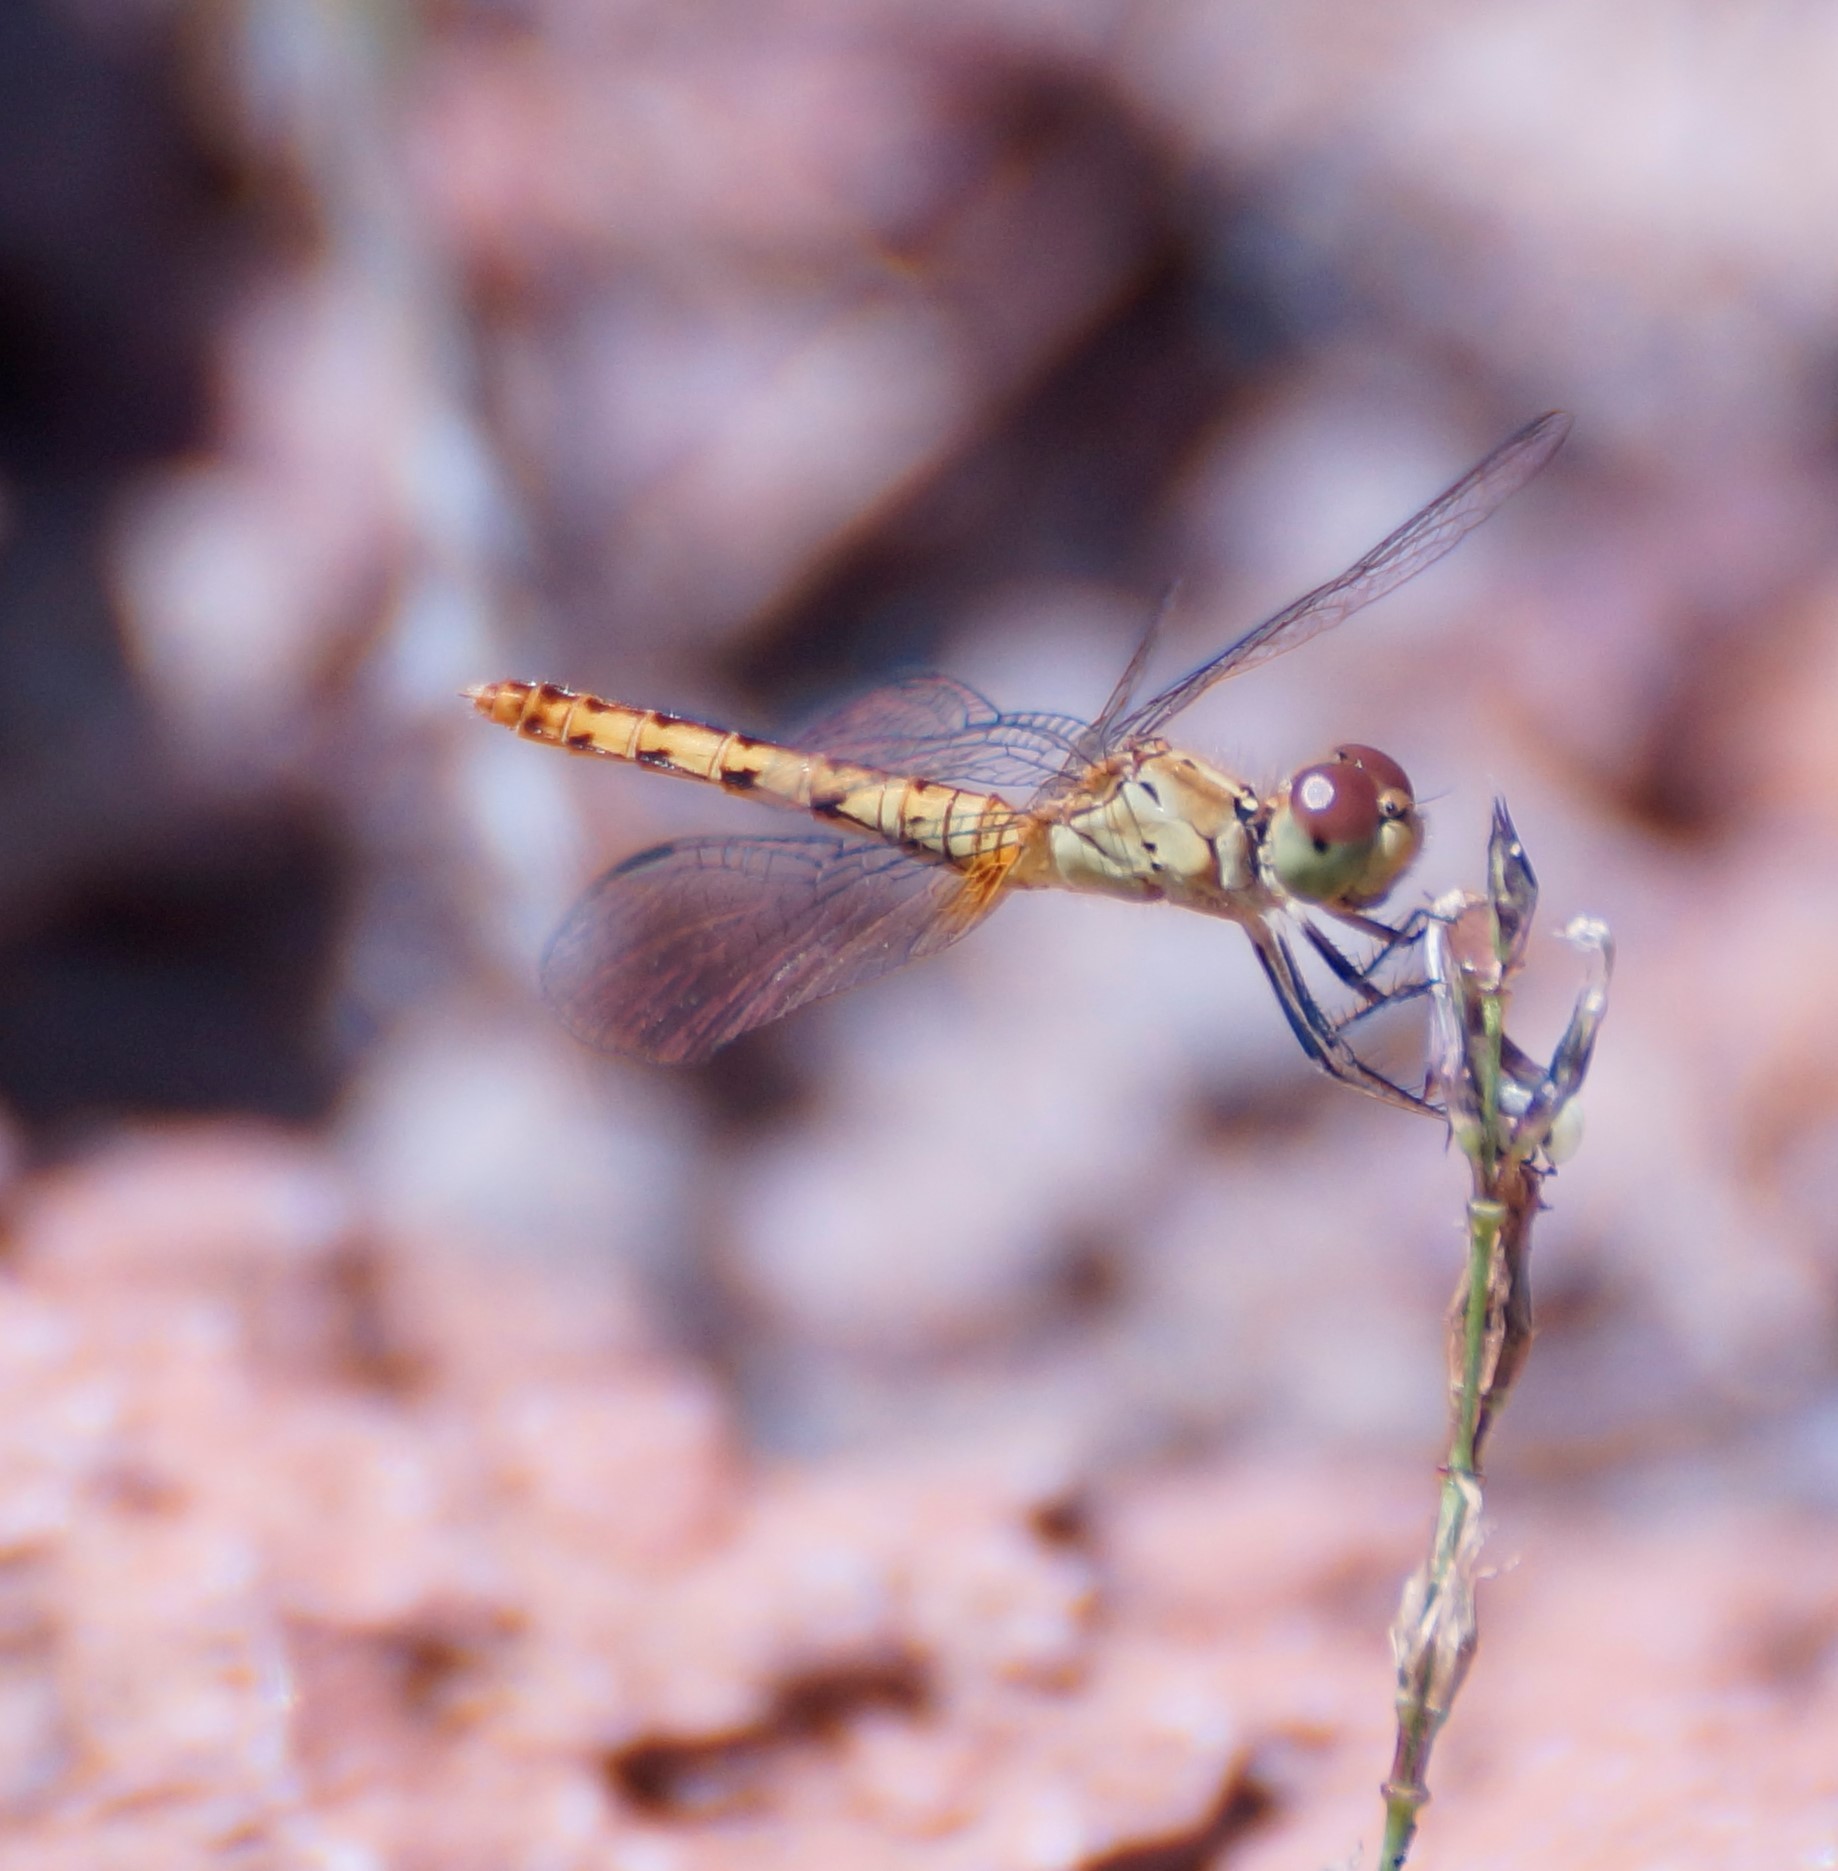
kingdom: Animalia
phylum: Arthropoda
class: Insecta
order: Odonata
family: Libellulidae
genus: Nannodiplax
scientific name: Nannodiplax rubra
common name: Pygmy percher
